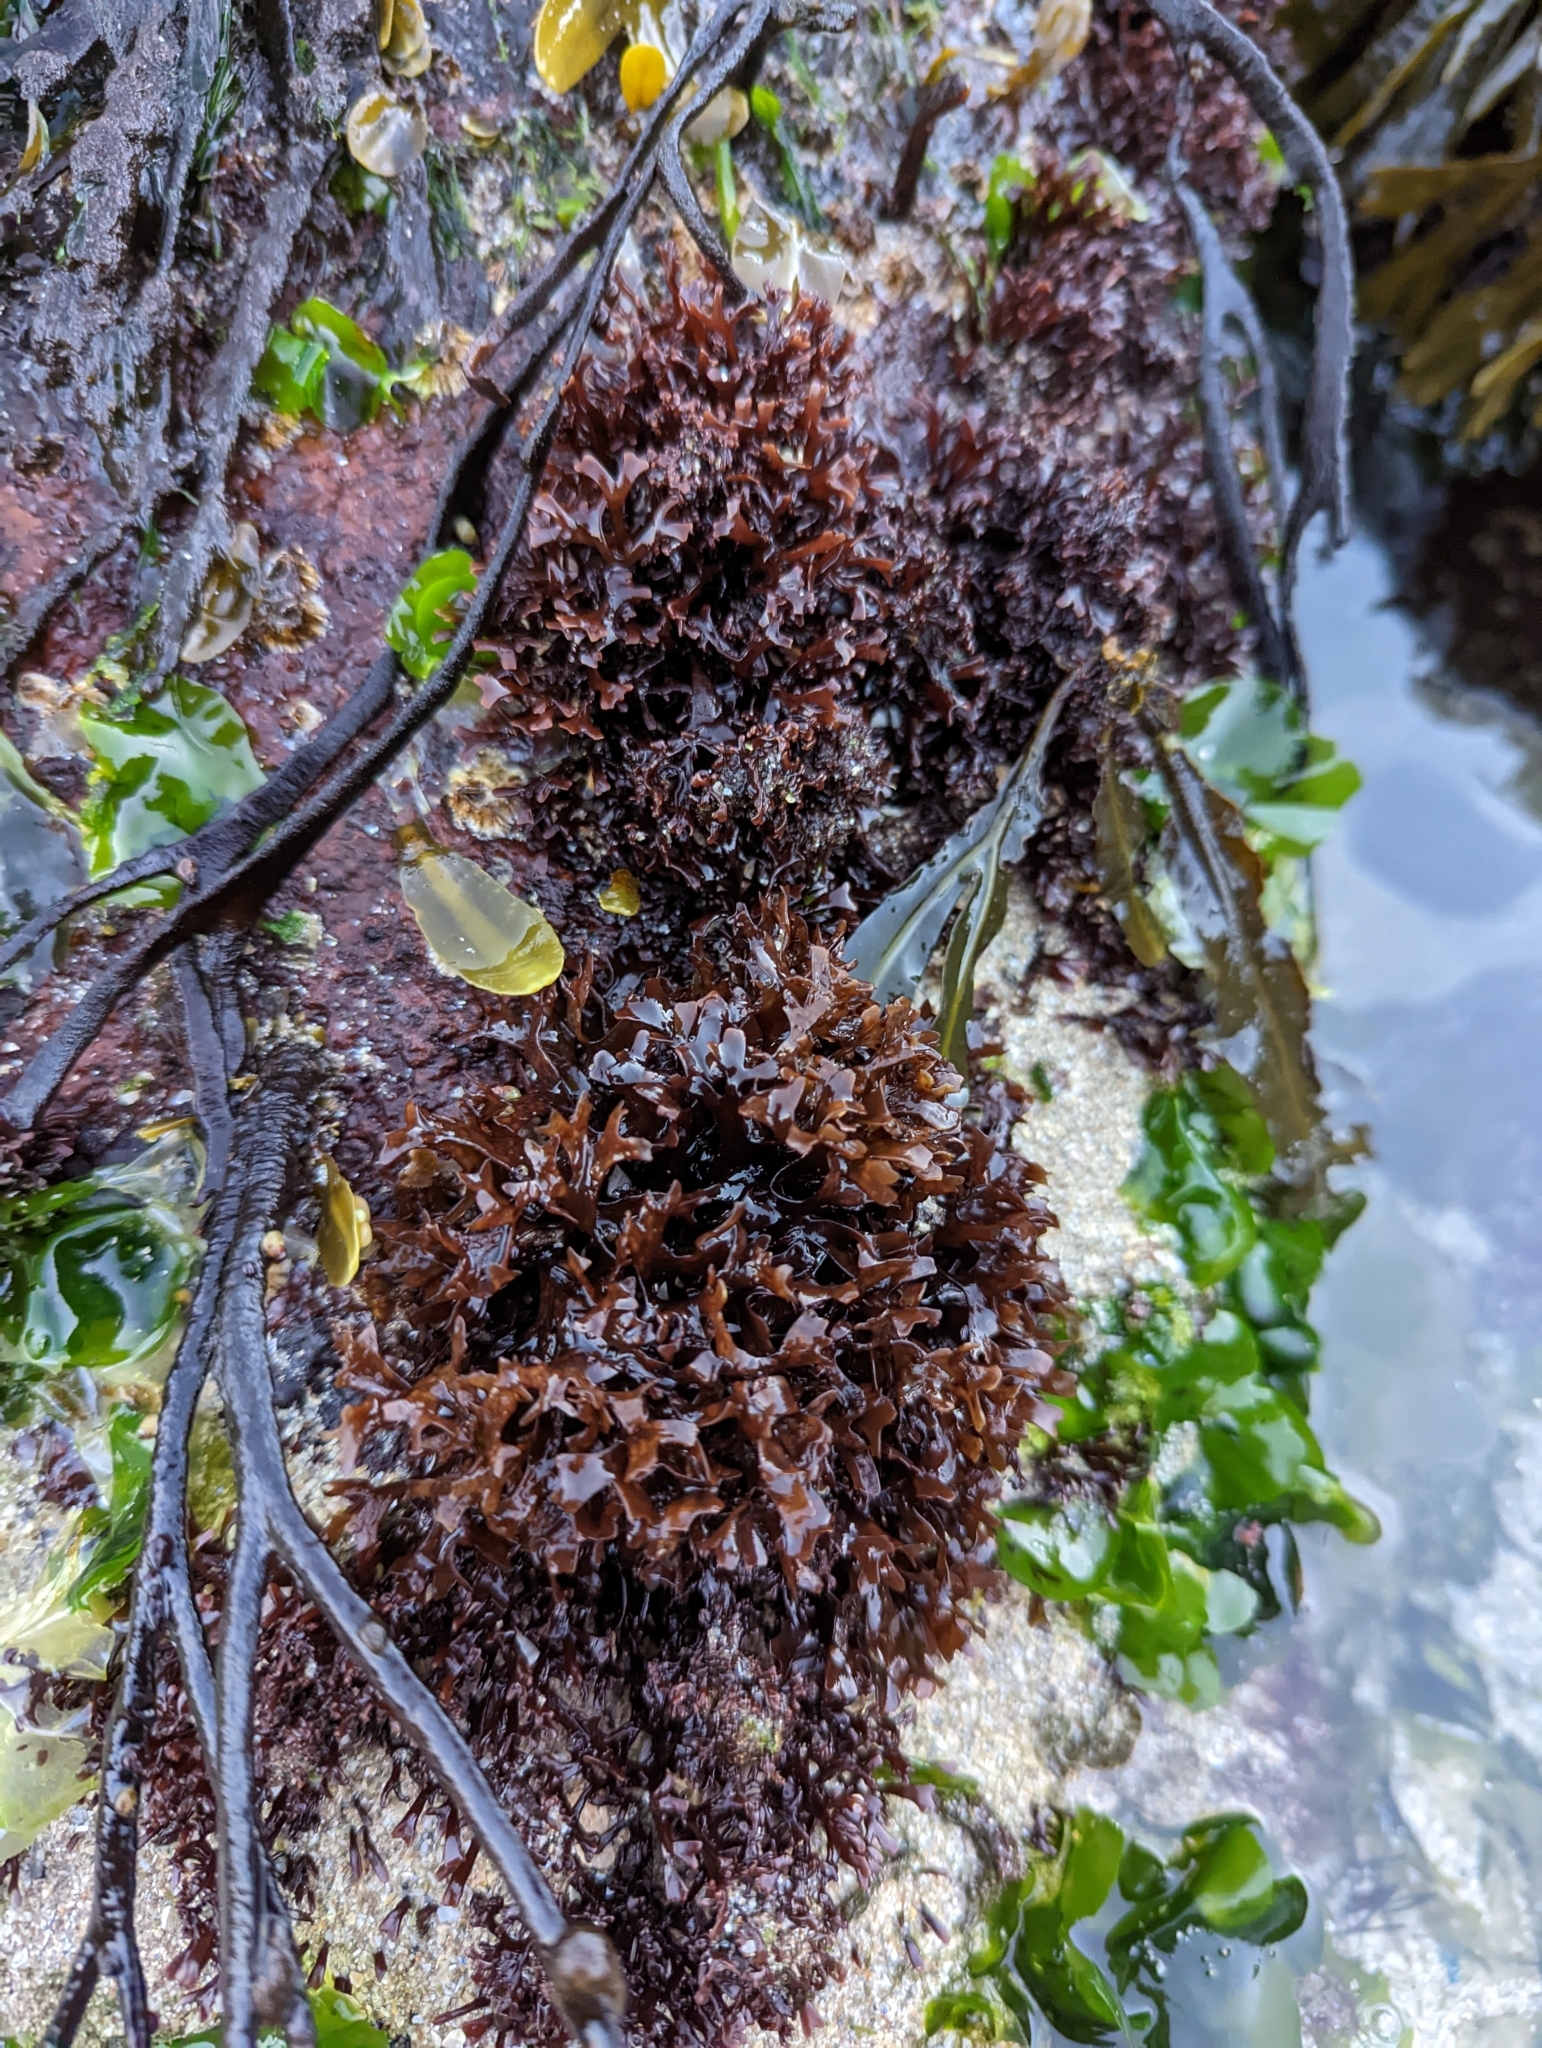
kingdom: Plantae
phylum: Rhodophyta
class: Florideophyceae
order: Gigartinales
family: Phyllophoraceae
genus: Mastocarpus
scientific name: Mastocarpus stellatus
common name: False irish moss
